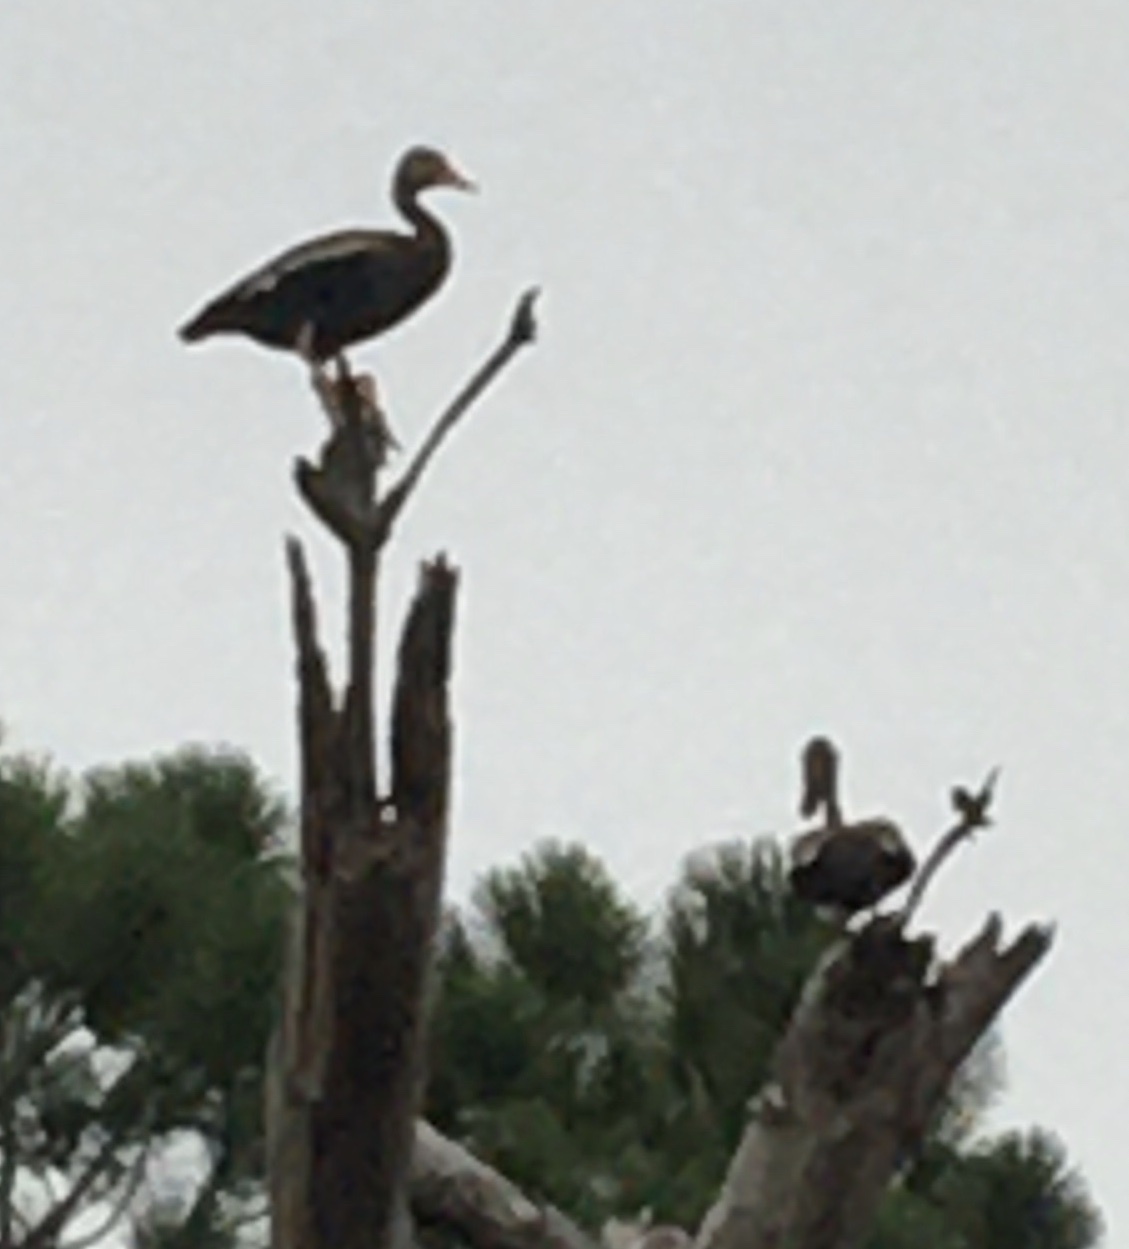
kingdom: Animalia
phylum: Chordata
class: Aves
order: Anseriformes
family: Anatidae
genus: Dendrocygna
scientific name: Dendrocygna autumnalis
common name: Black-bellied whistling duck
